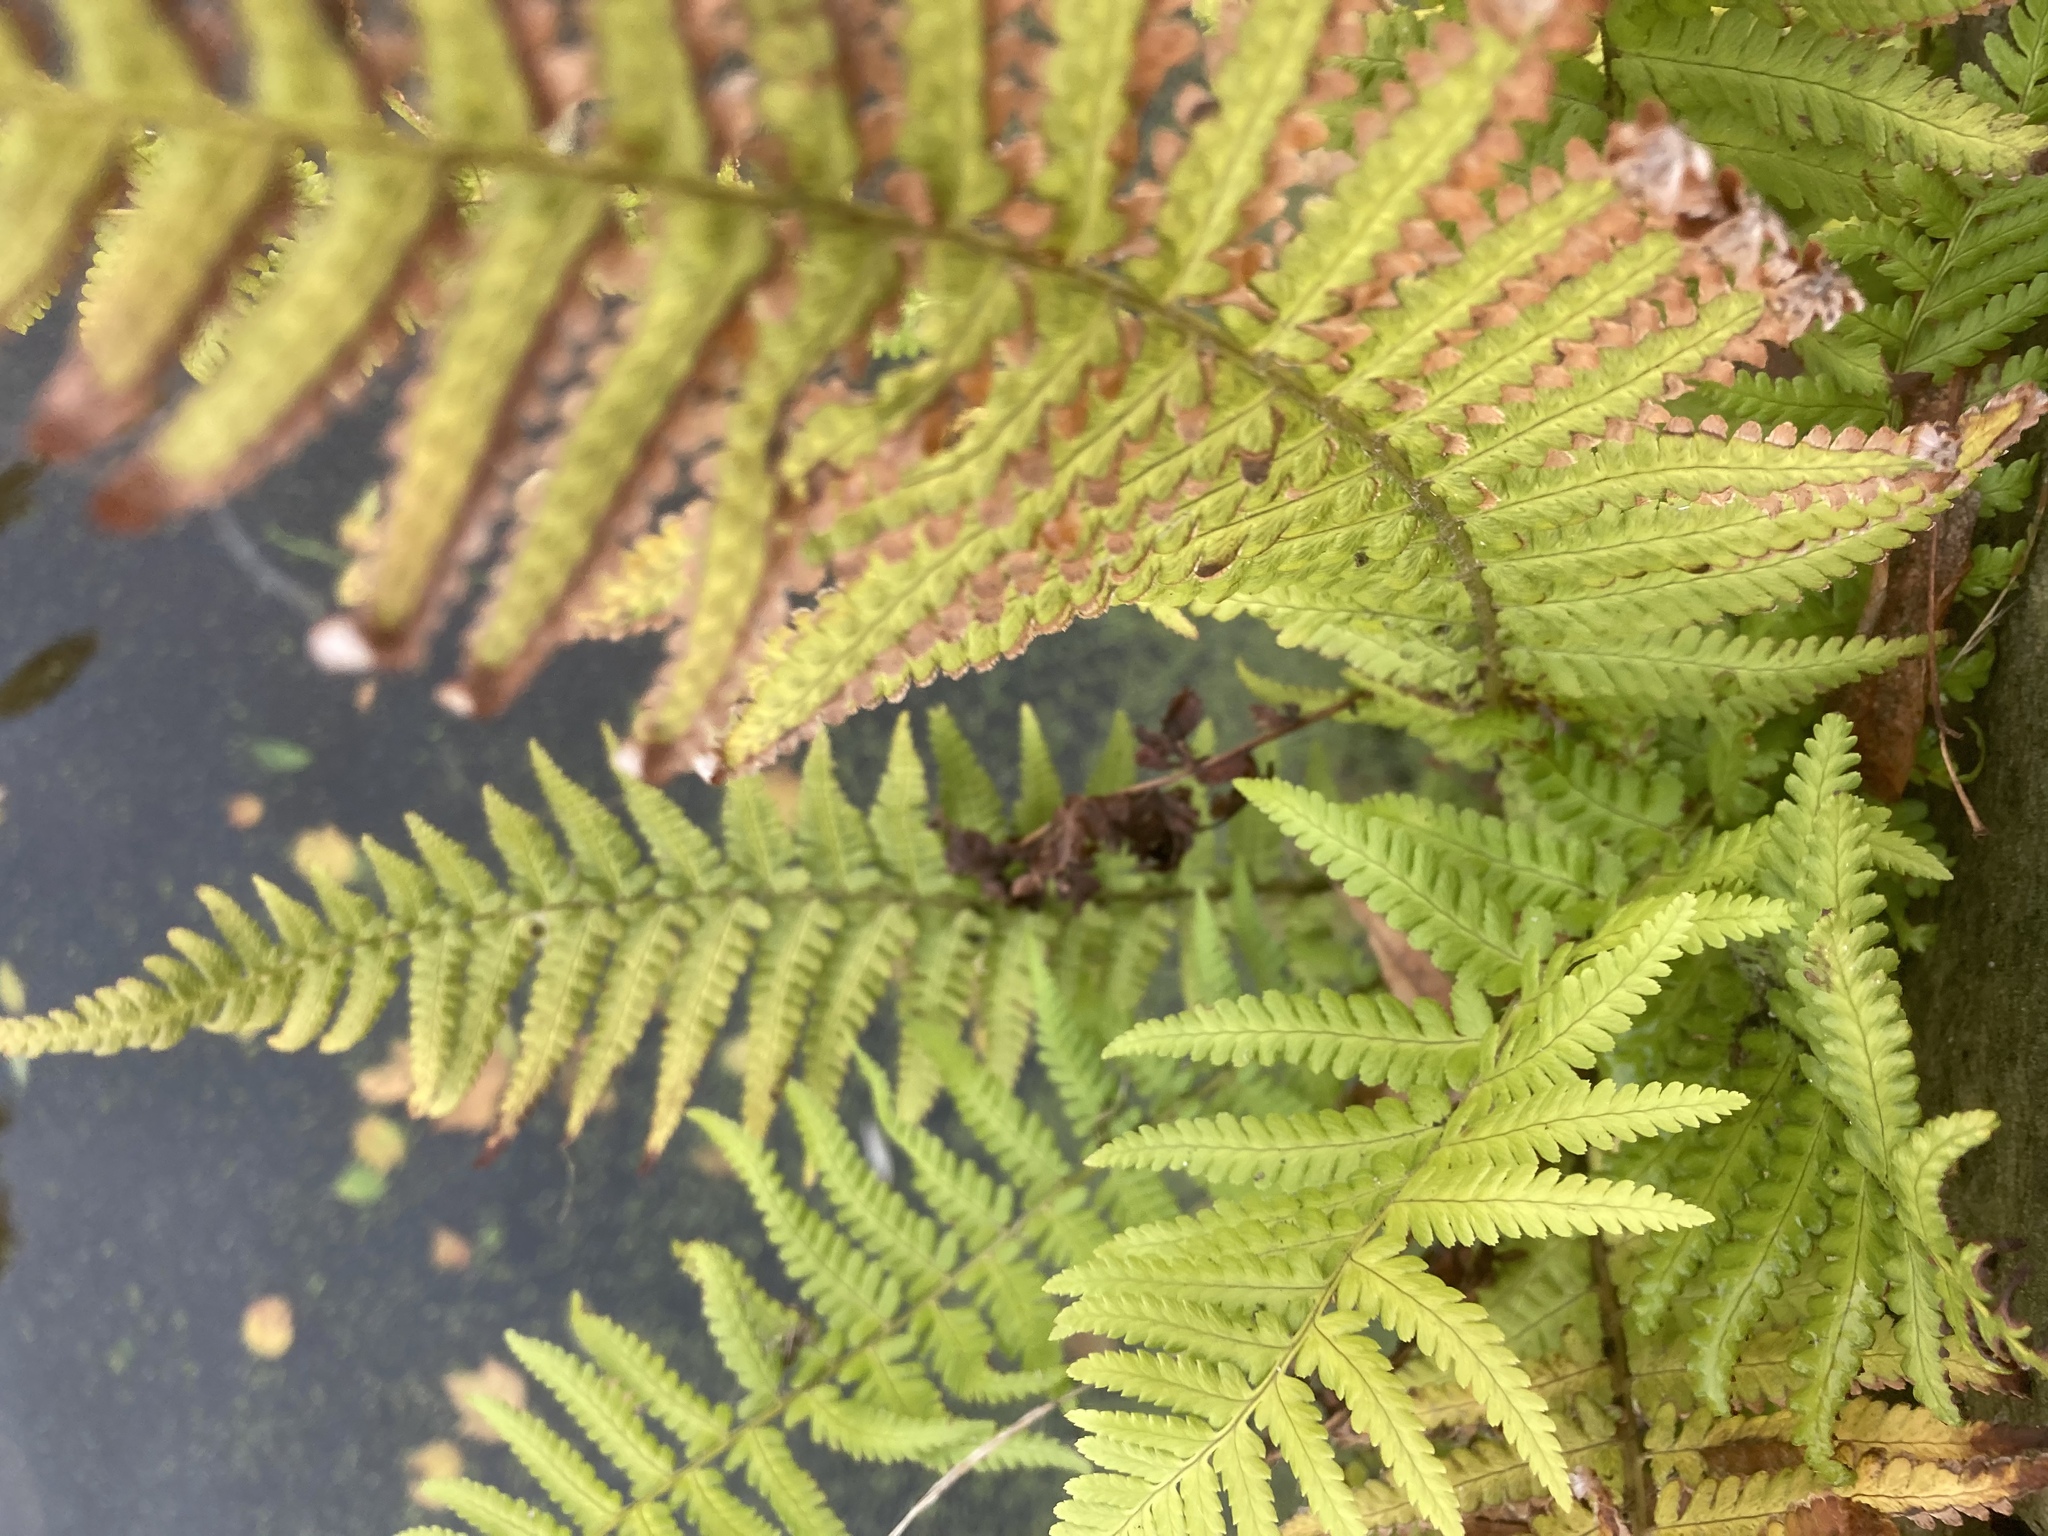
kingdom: Plantae
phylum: Tracheophyta
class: Polypodiopsida
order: Polypodiales
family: Dryopteridaceae
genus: Dryopteris
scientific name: Dryopteris filix-mas
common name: Male fern
